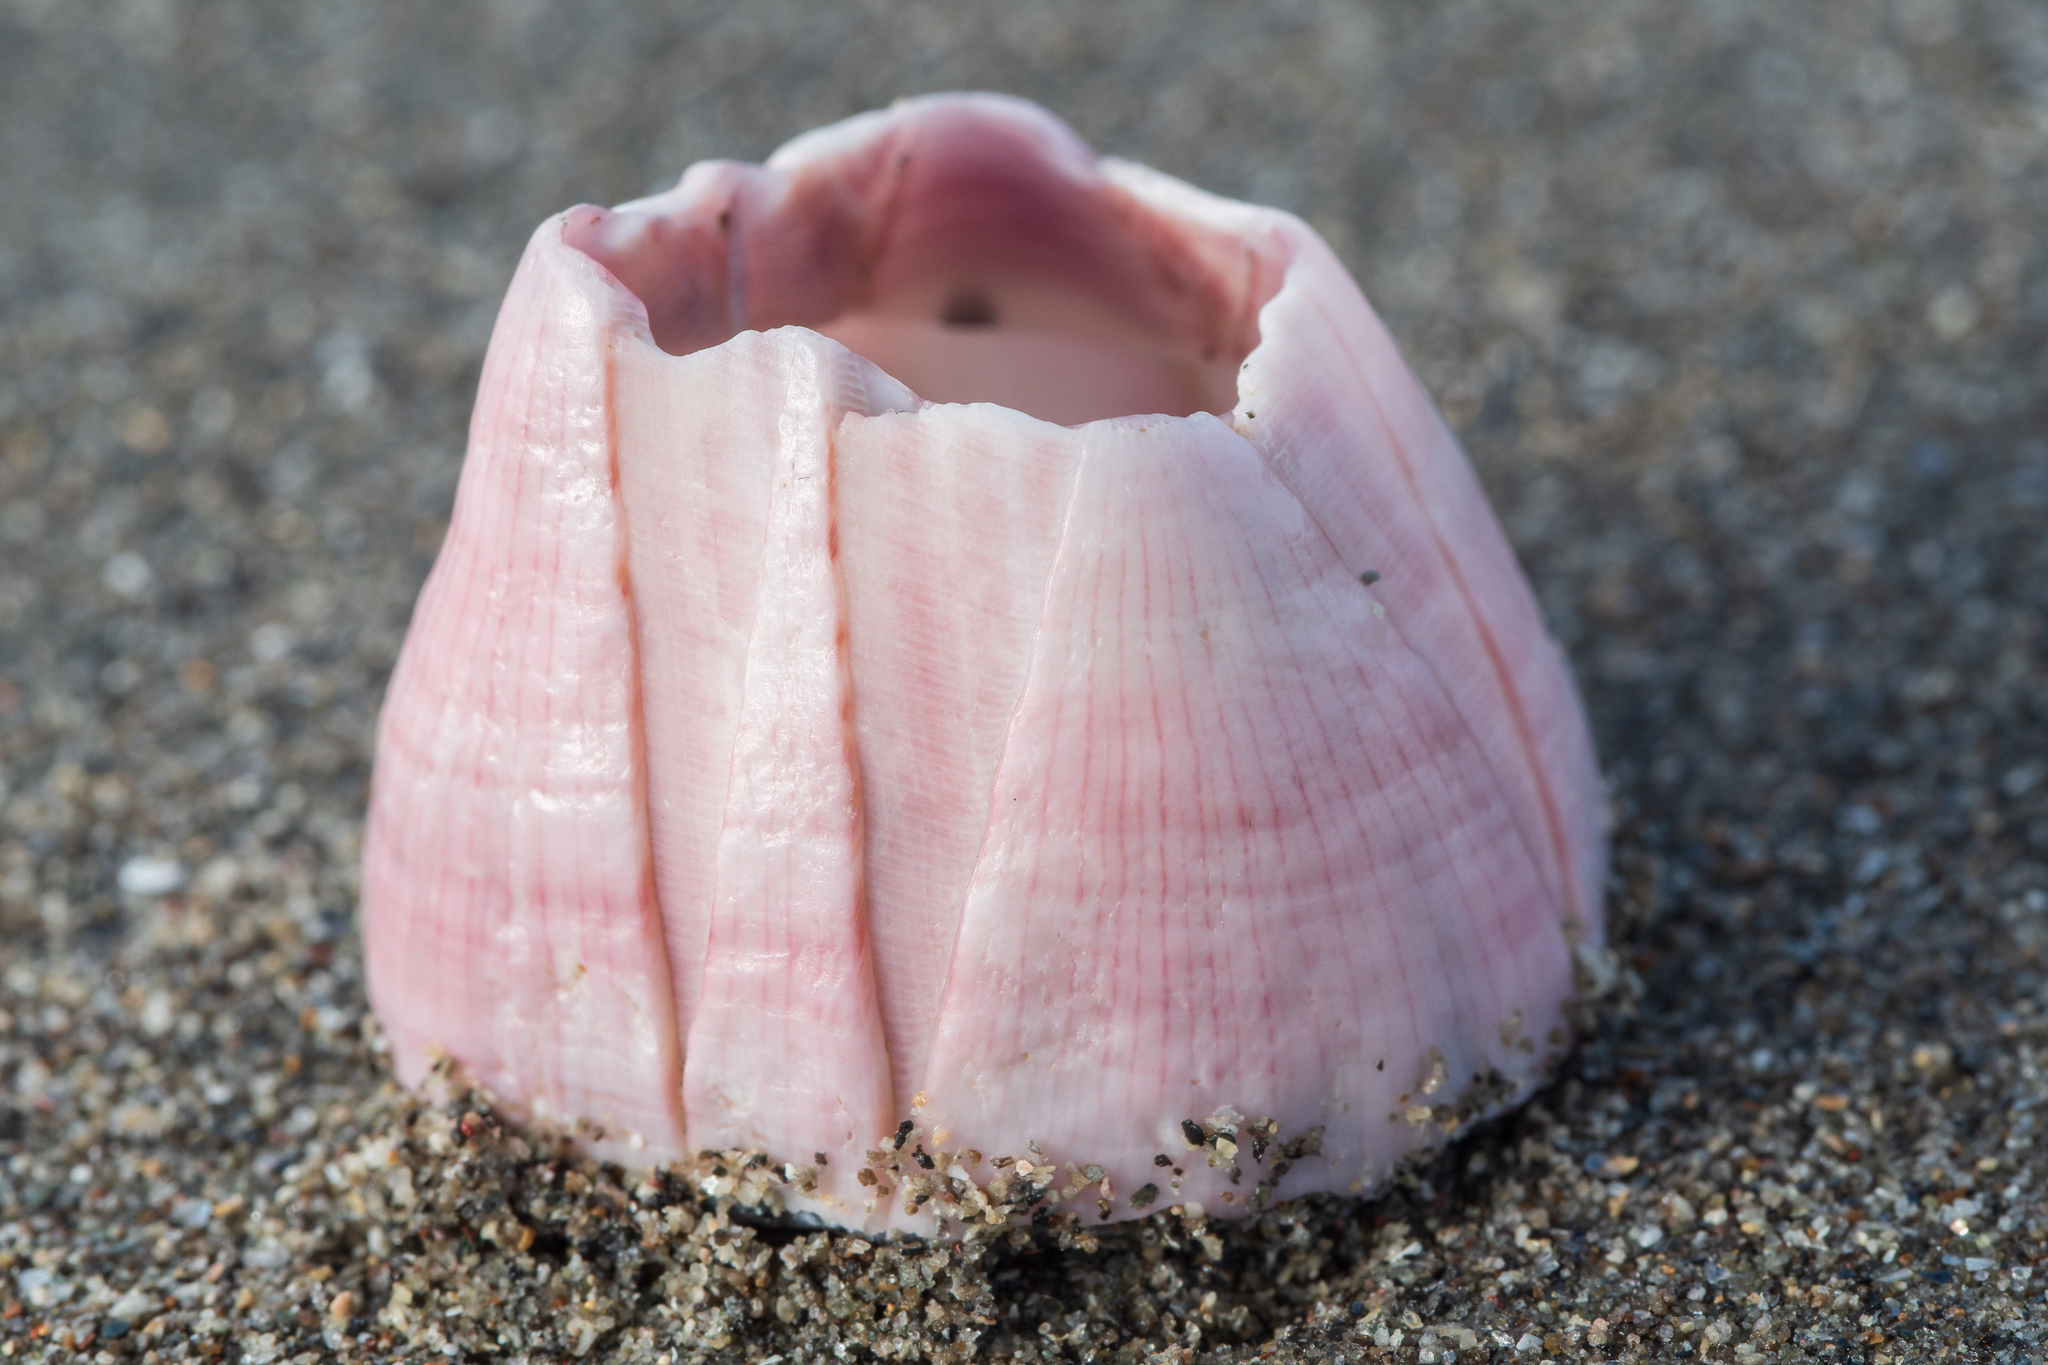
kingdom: Animalia
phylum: Arthropoda
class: Maxillopoda
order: Sessilia
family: Balanidae
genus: Notomegabalanus
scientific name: Notomegabalanus decorus
